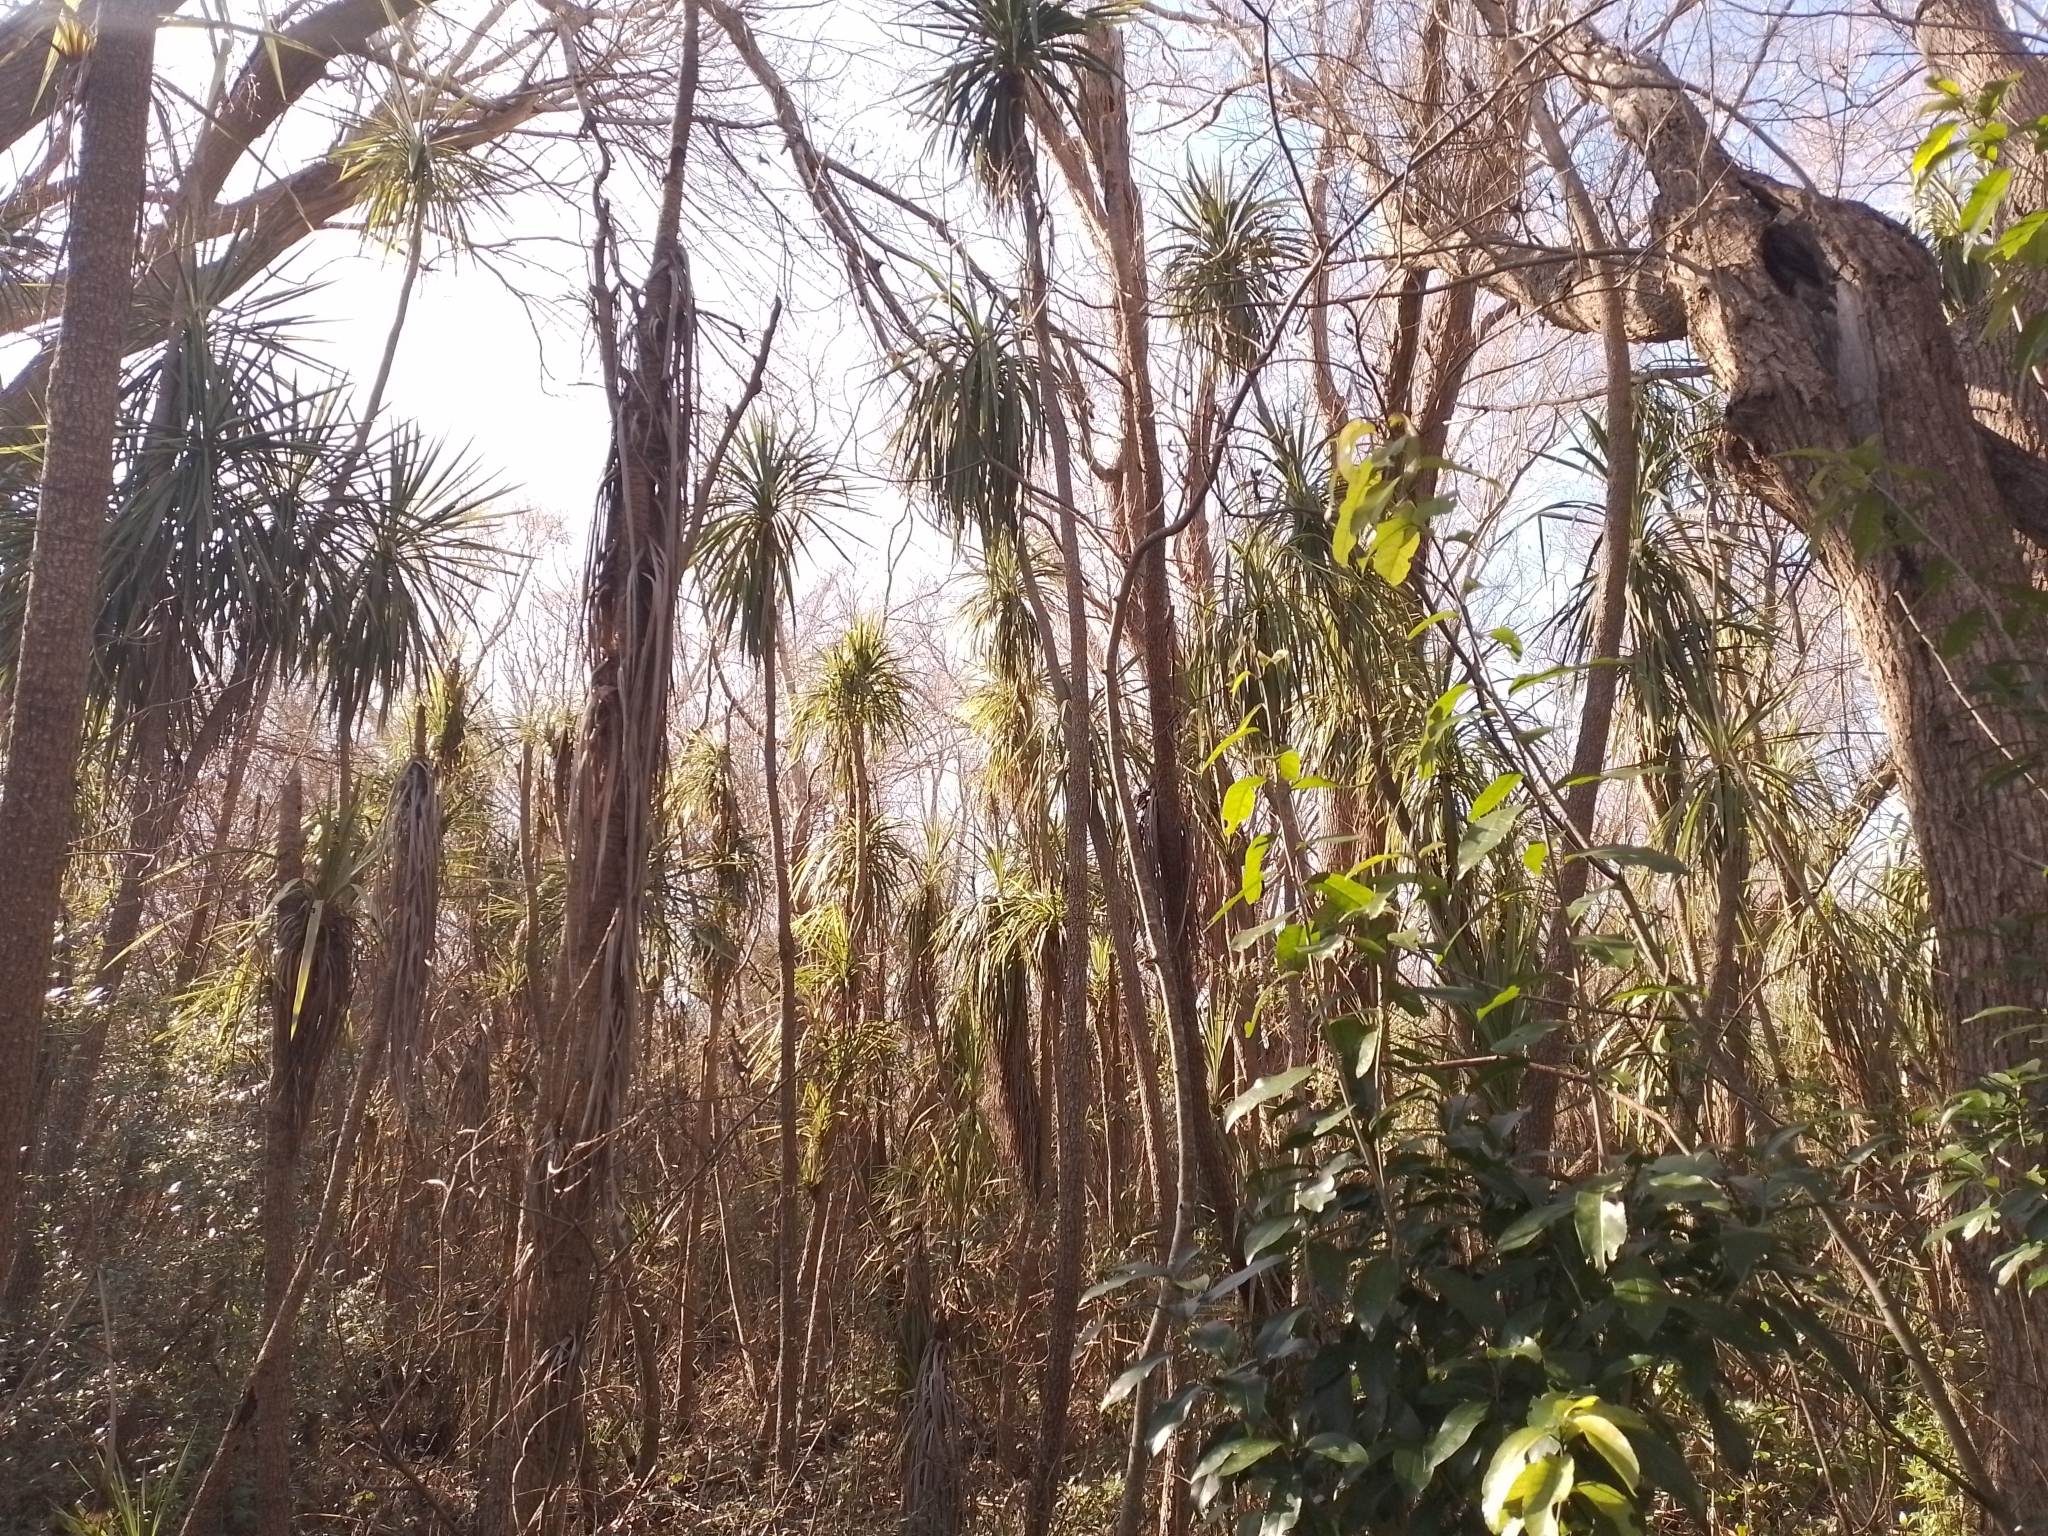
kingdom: Plantae
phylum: Tracheophyta
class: Liliopsida
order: Asparagales
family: Asparagaceae
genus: Cordyline
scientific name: Cordyline australis
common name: Cabbage-palm
